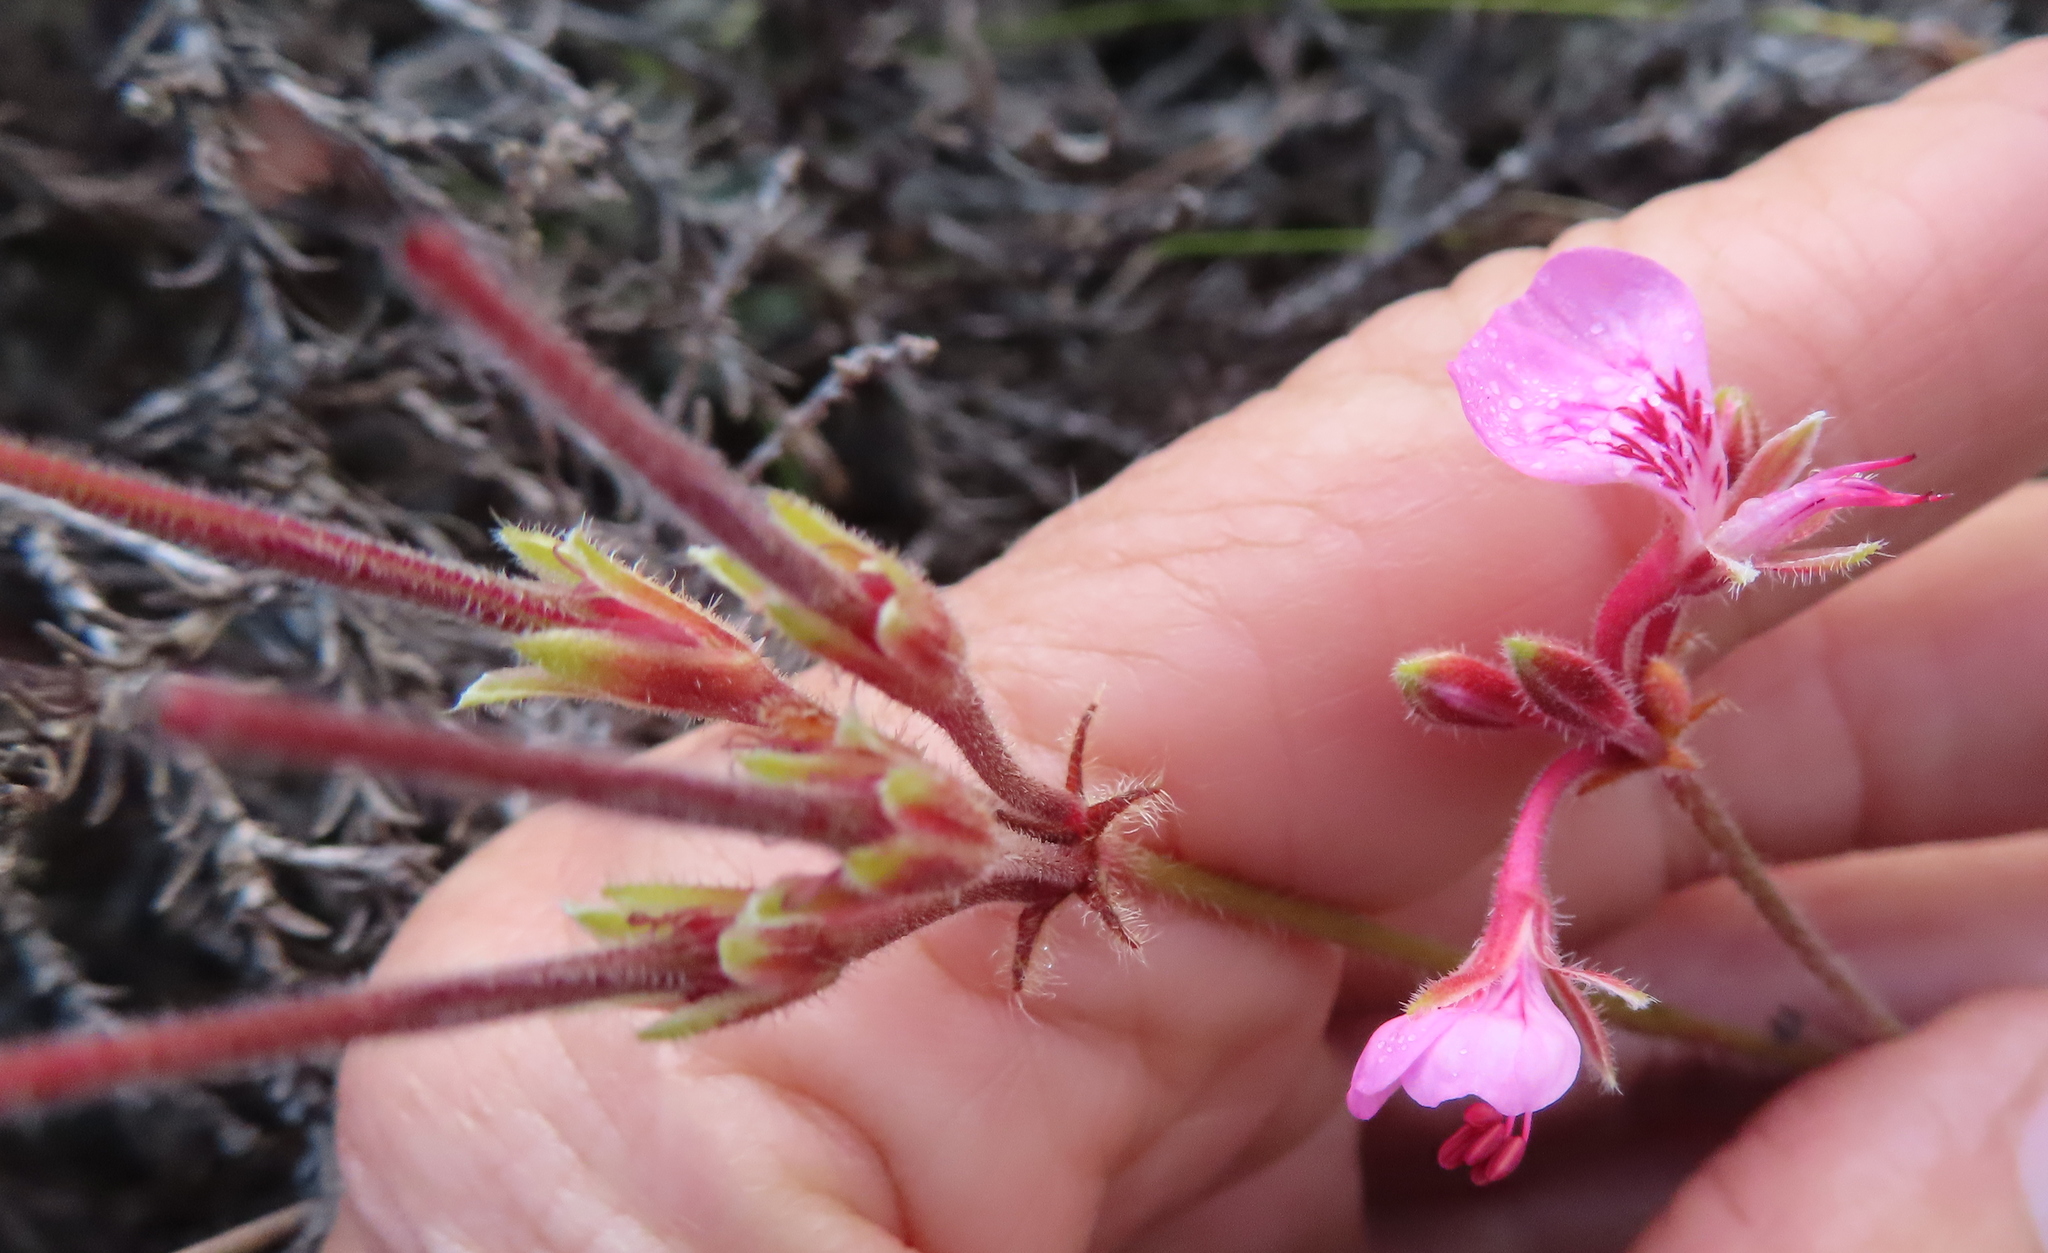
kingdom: Plantae
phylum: Tracheophyta
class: Magnoliopsida
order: Geraniales
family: Geraniaceae
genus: Pelargonium
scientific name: Pelargonium dipetalum
